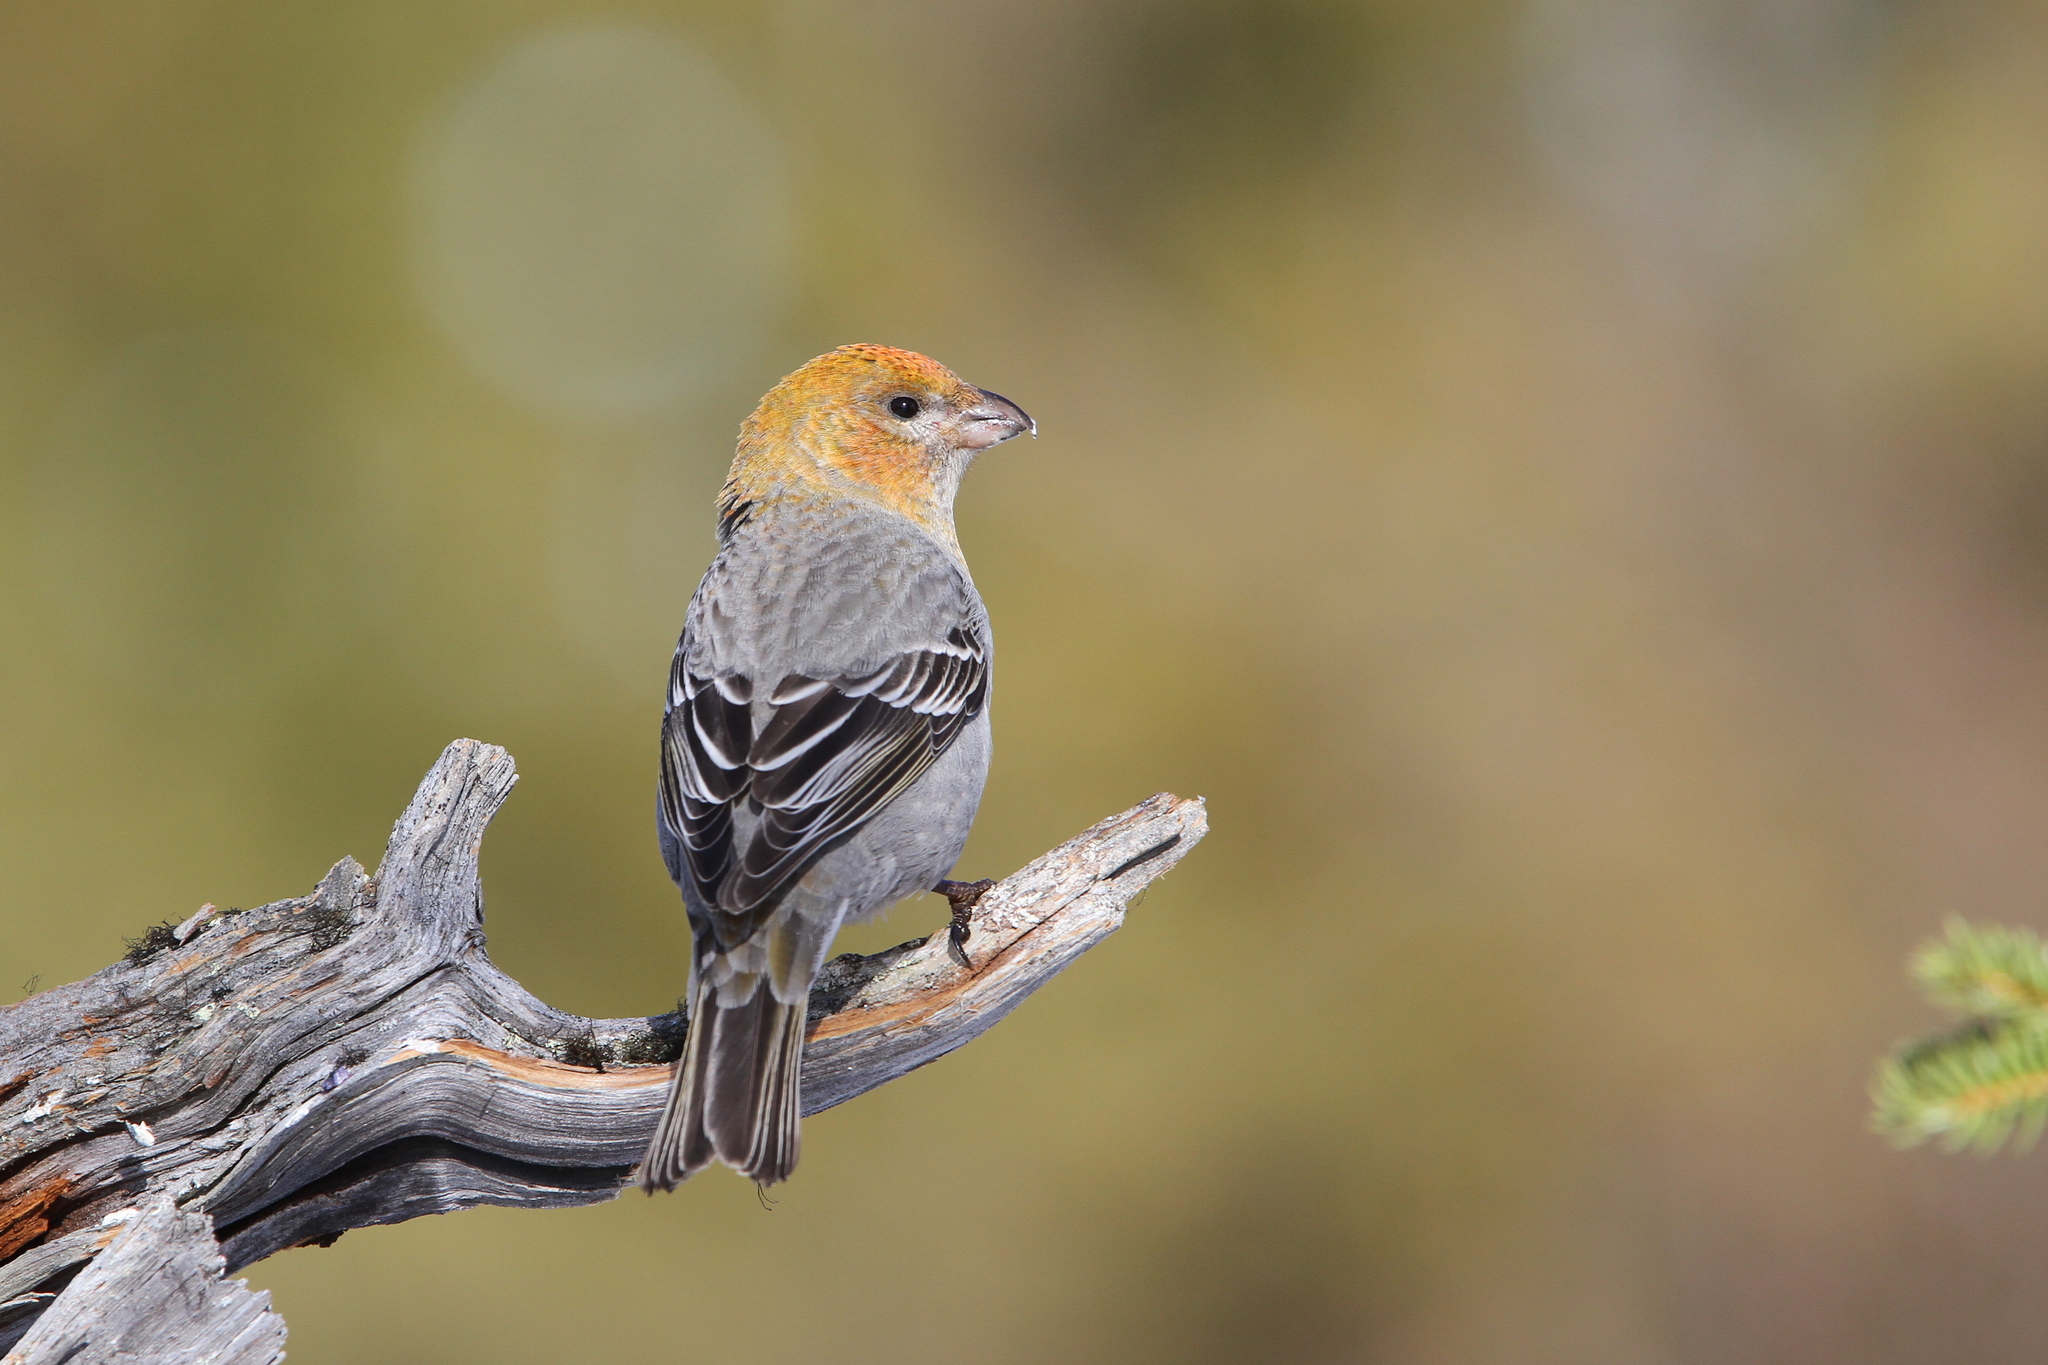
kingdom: Animalia
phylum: Chordata
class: Aves
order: Passeriformes
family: Fringillidae
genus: Pinicola
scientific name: Pinicola enucleator
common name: Pine grosbeak
